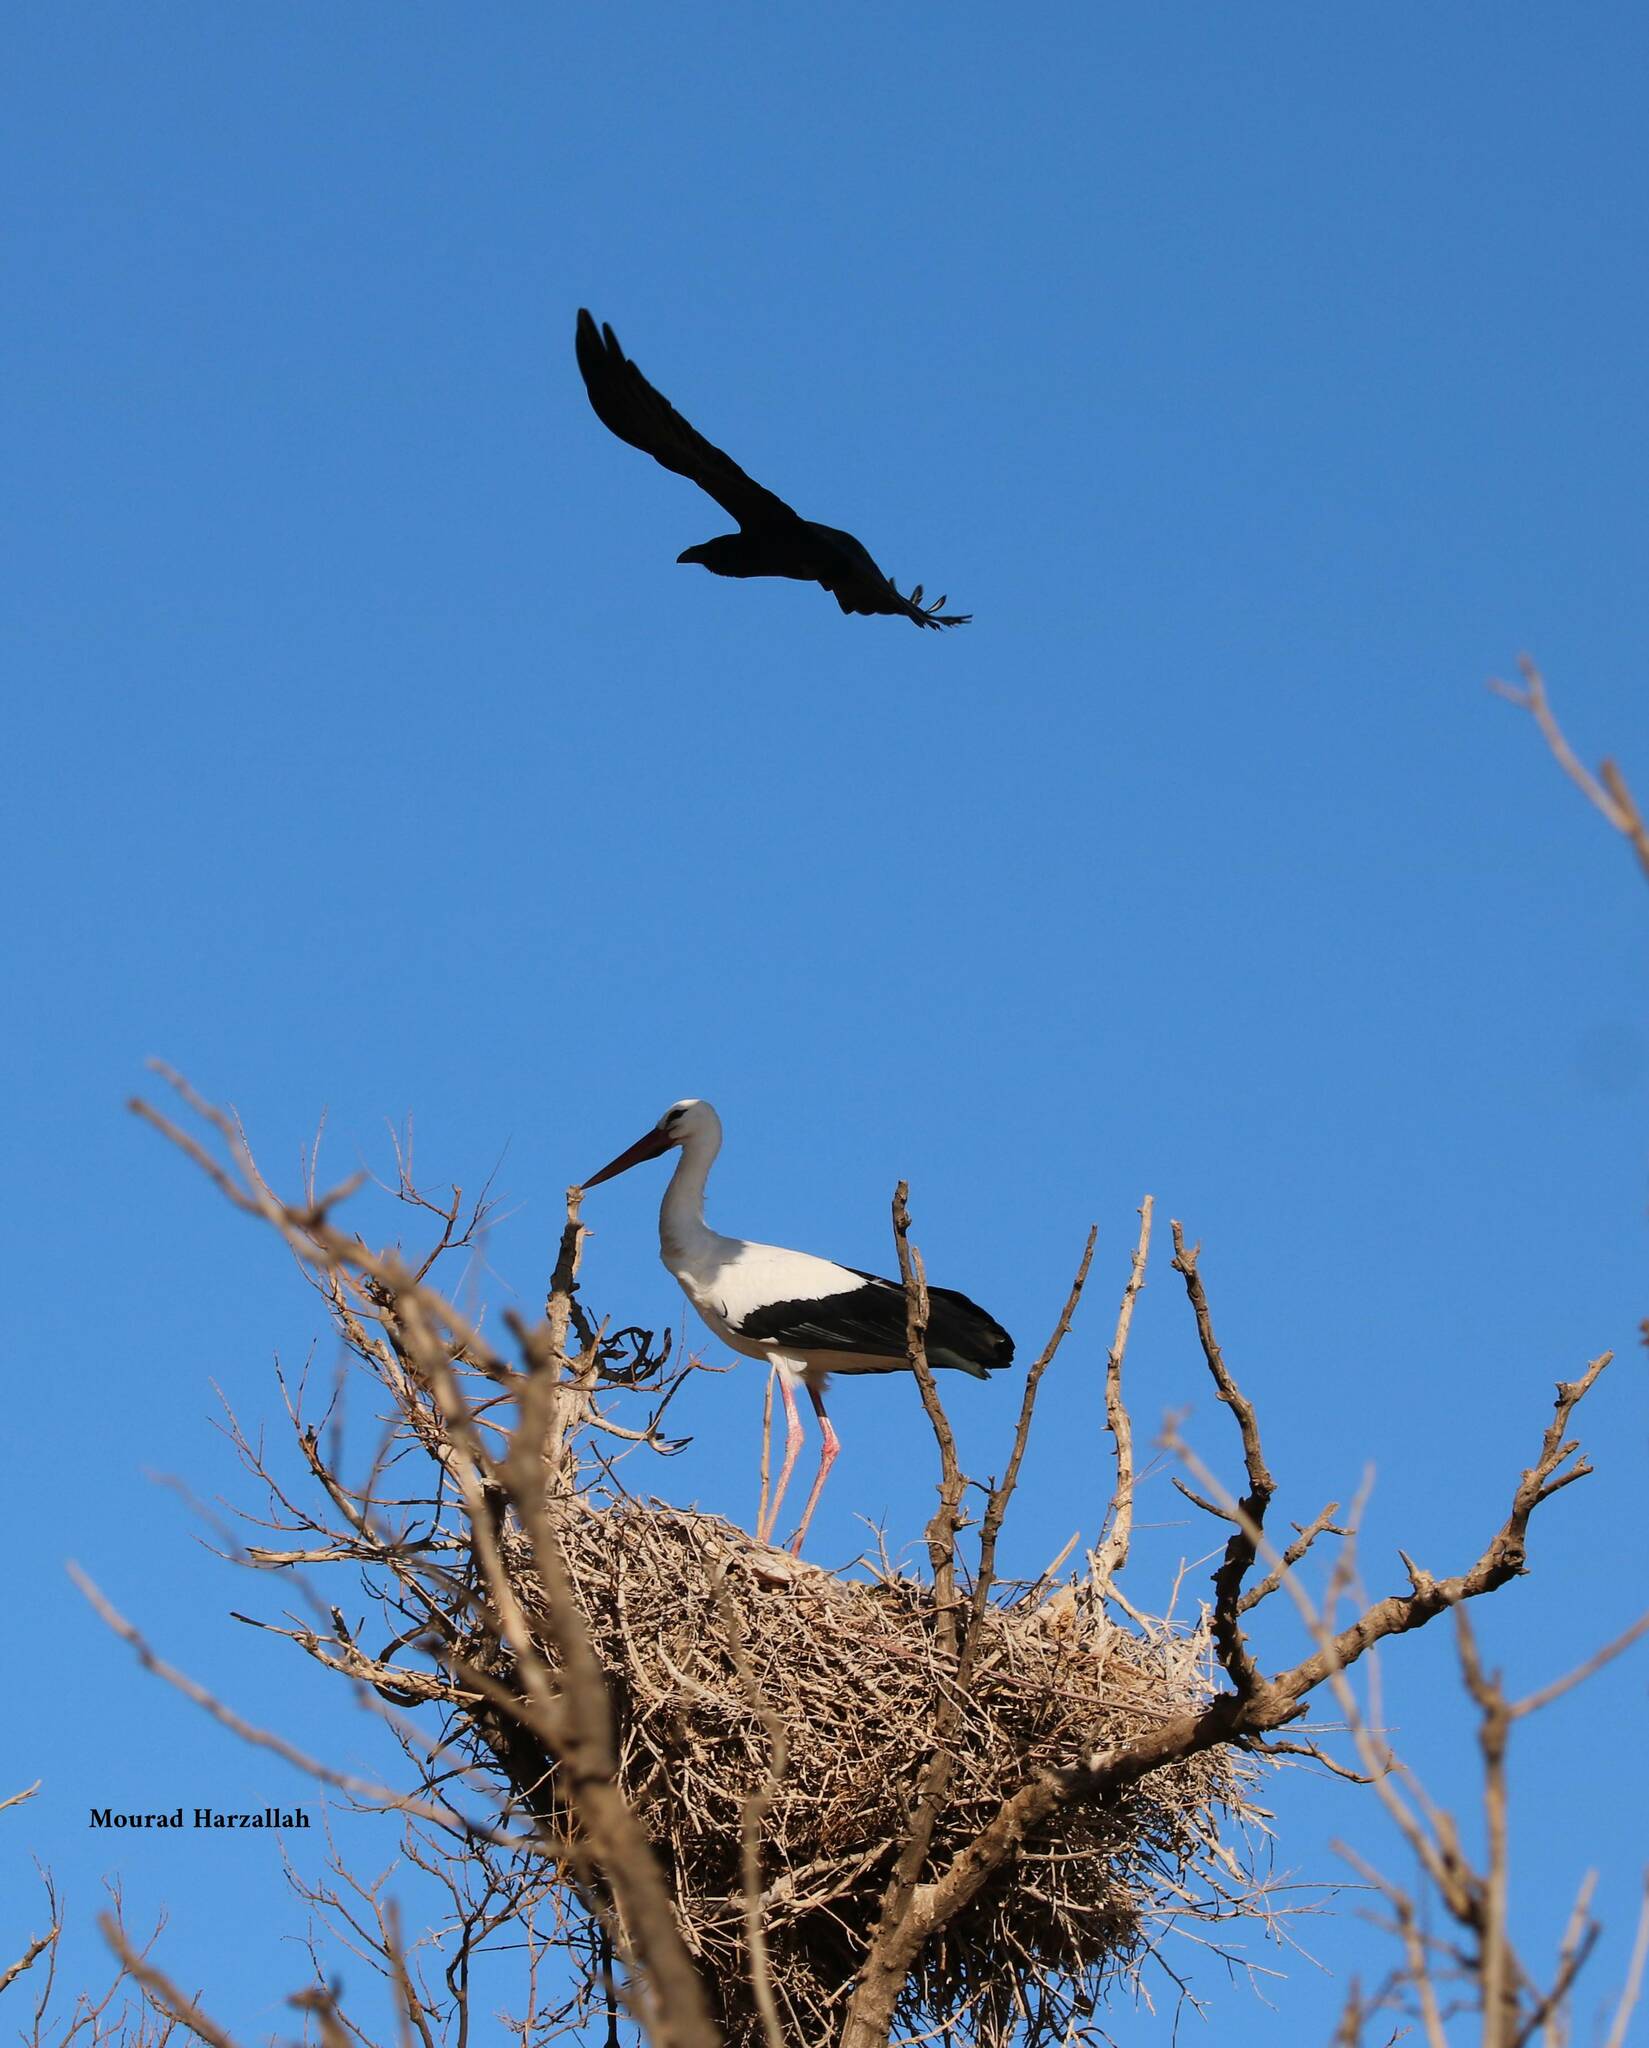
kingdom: Animalia
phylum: Chordata
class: Aves
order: Ciconiiformes
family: Ciconiidae
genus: Ciconia
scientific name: Ciconia ciconia
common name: White stork
